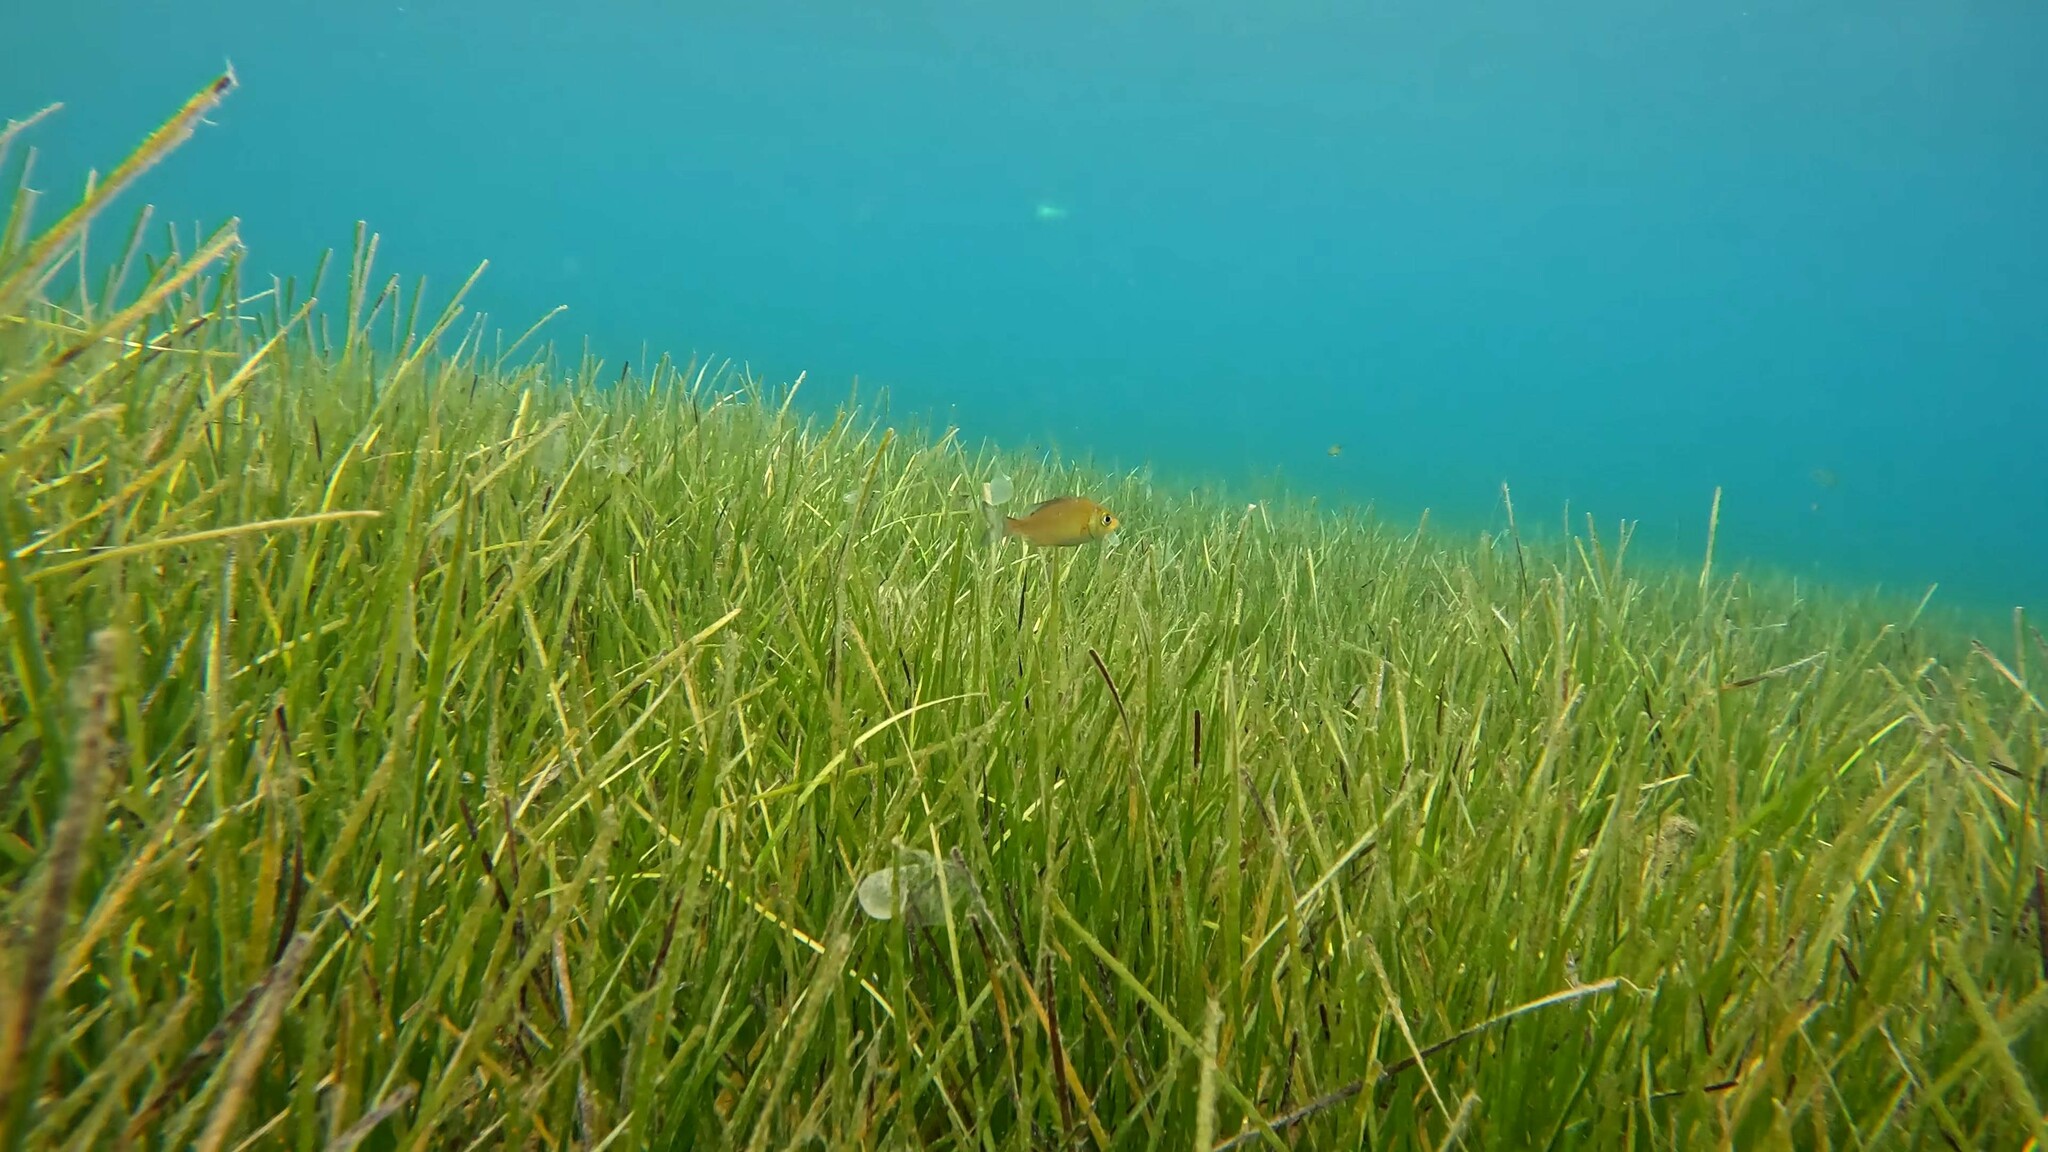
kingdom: Animalia
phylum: Chordata
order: Perciformes
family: Sparidae
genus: Spondyliosoma
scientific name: Spondyliosoma cantharus
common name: Black seabream
